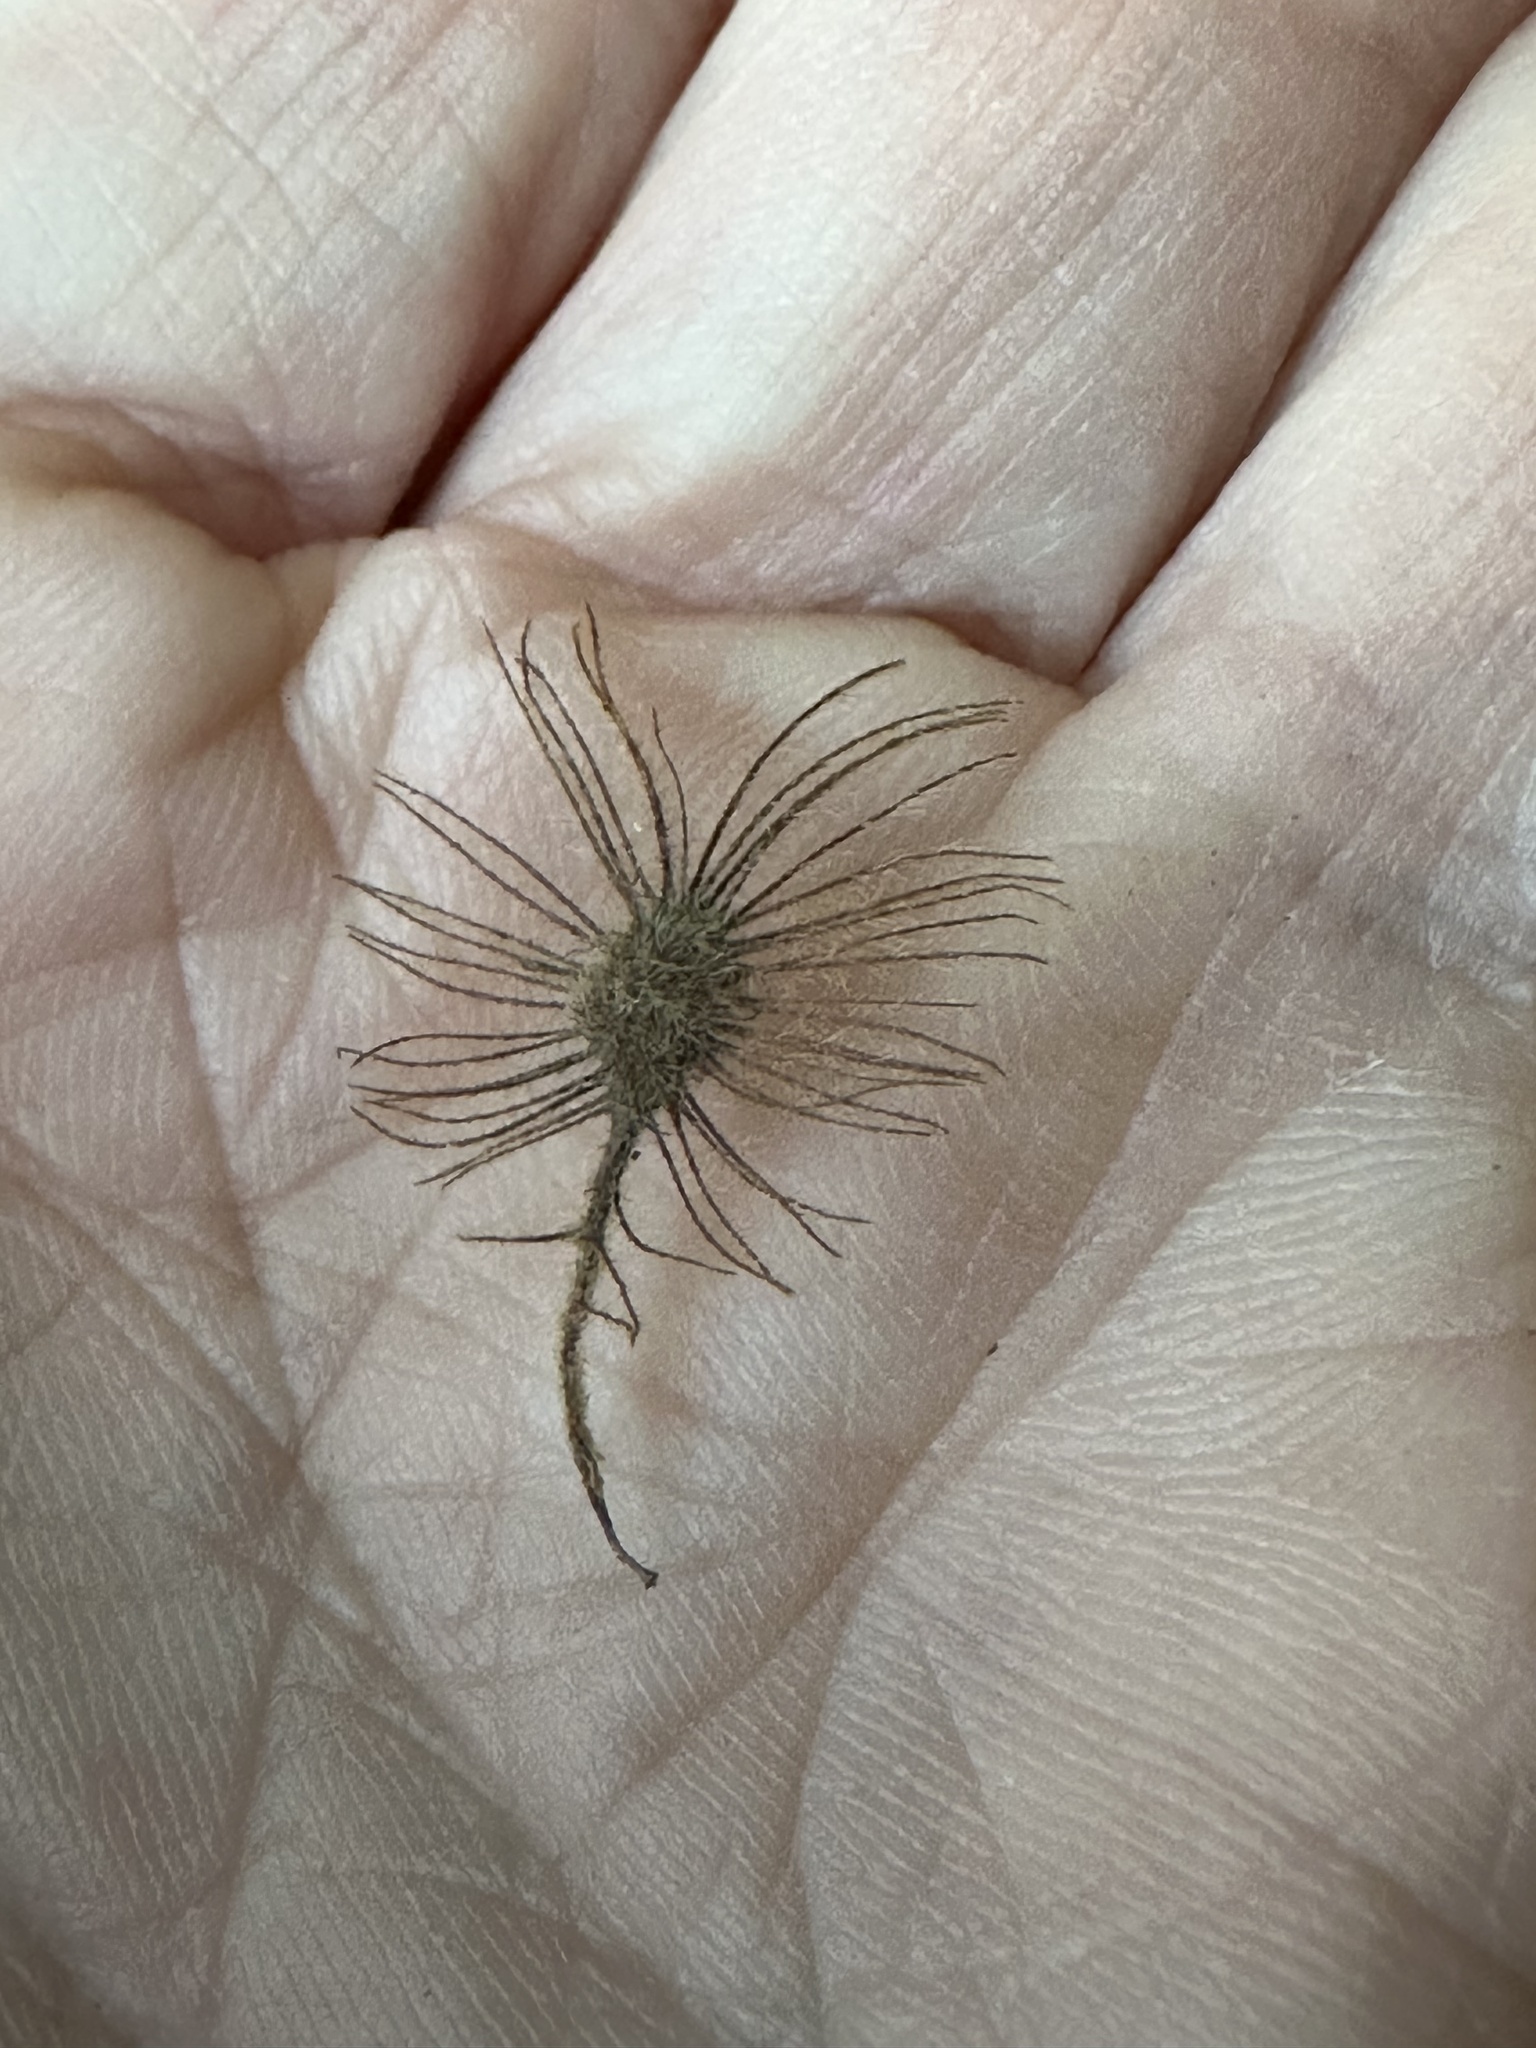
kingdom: Plantae
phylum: Tracheophyta
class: Magnoliopsida
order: Malvales
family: Malvaceae
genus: Heliocarpus
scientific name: Heliocarpus americanus
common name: White moho
